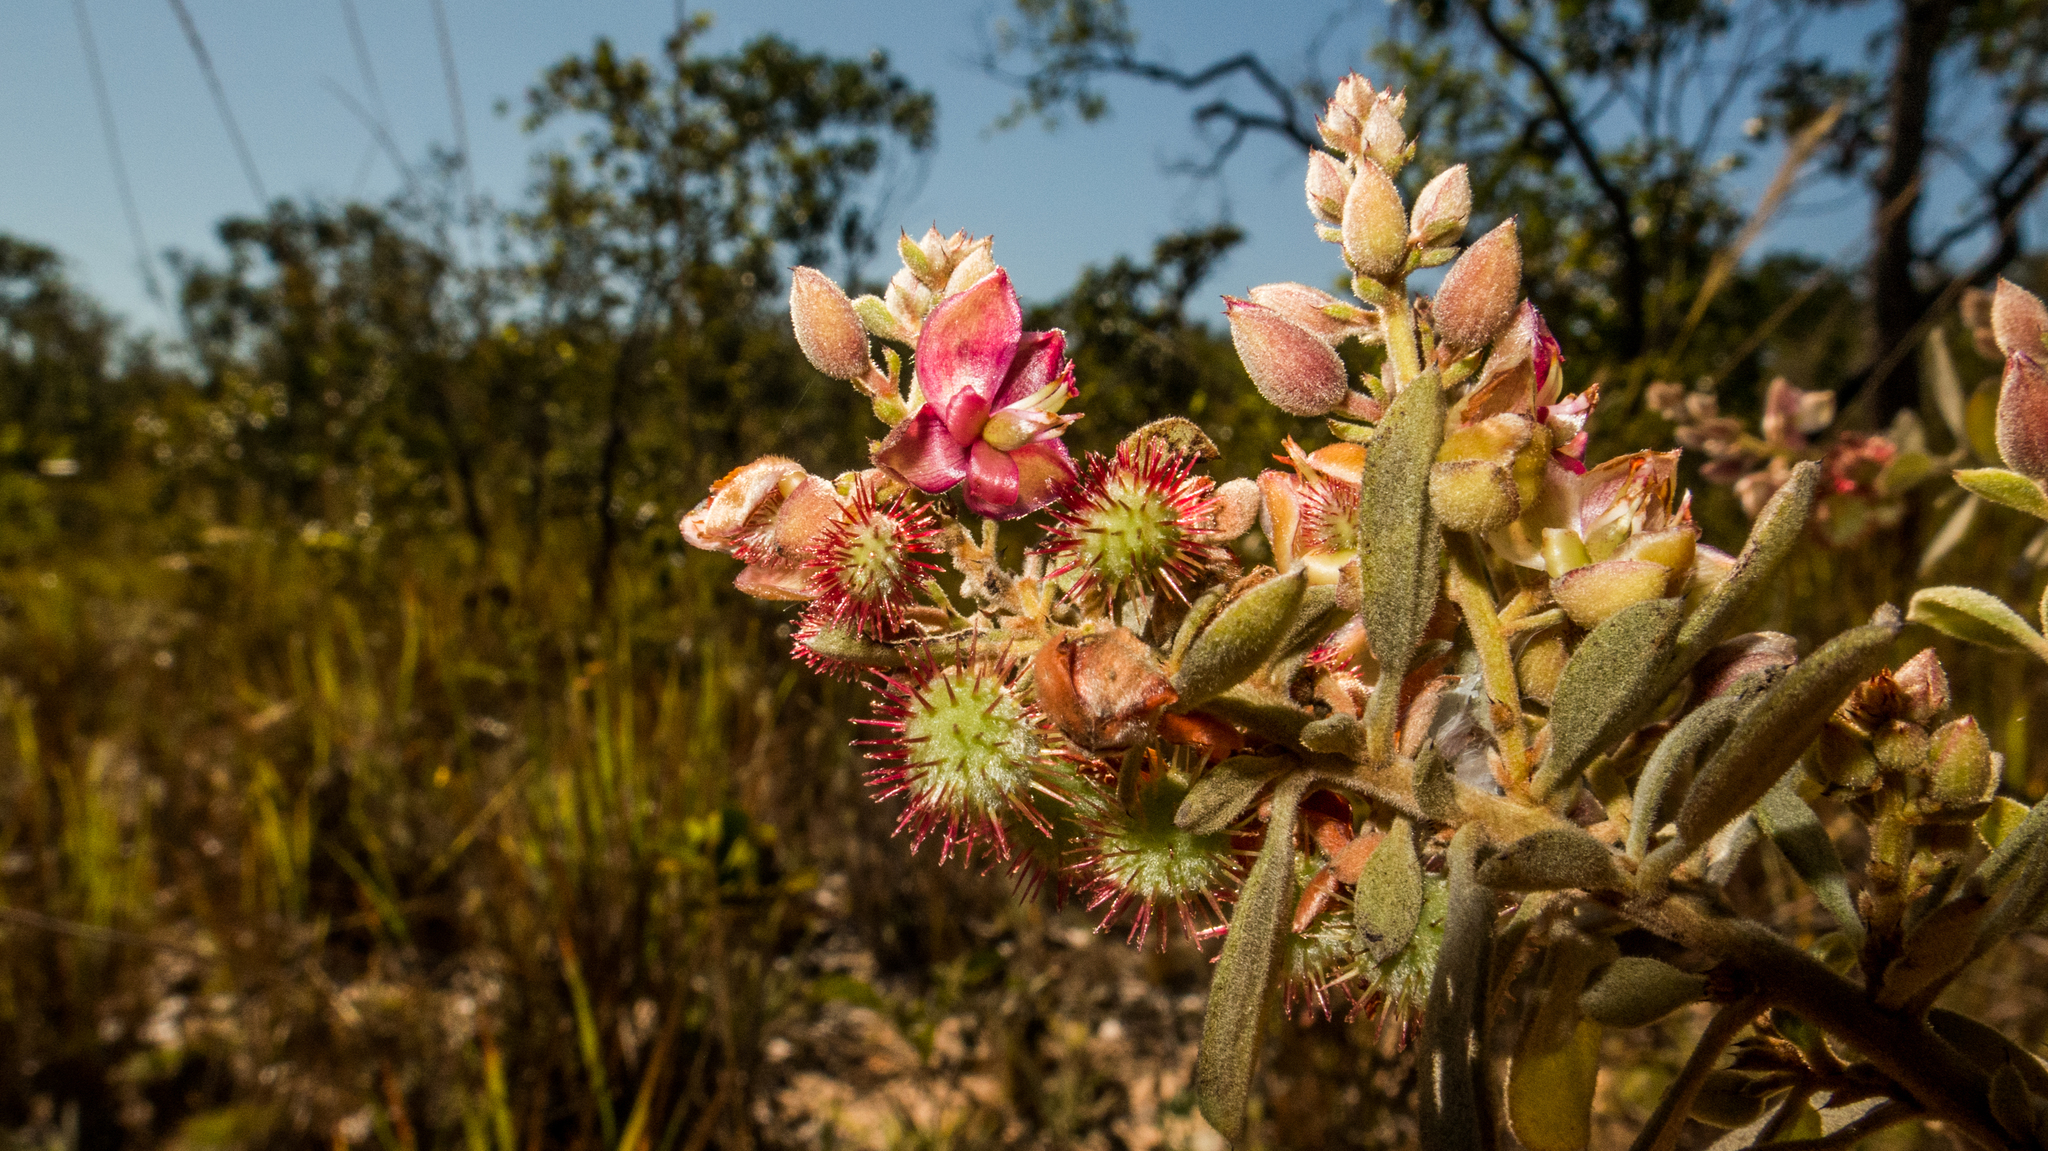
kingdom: Plantae
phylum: Tracheophyta
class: Magnoliopsida
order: Zygophyllales
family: Krameriaceae
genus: Krameria
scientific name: Krameria tomentosa
